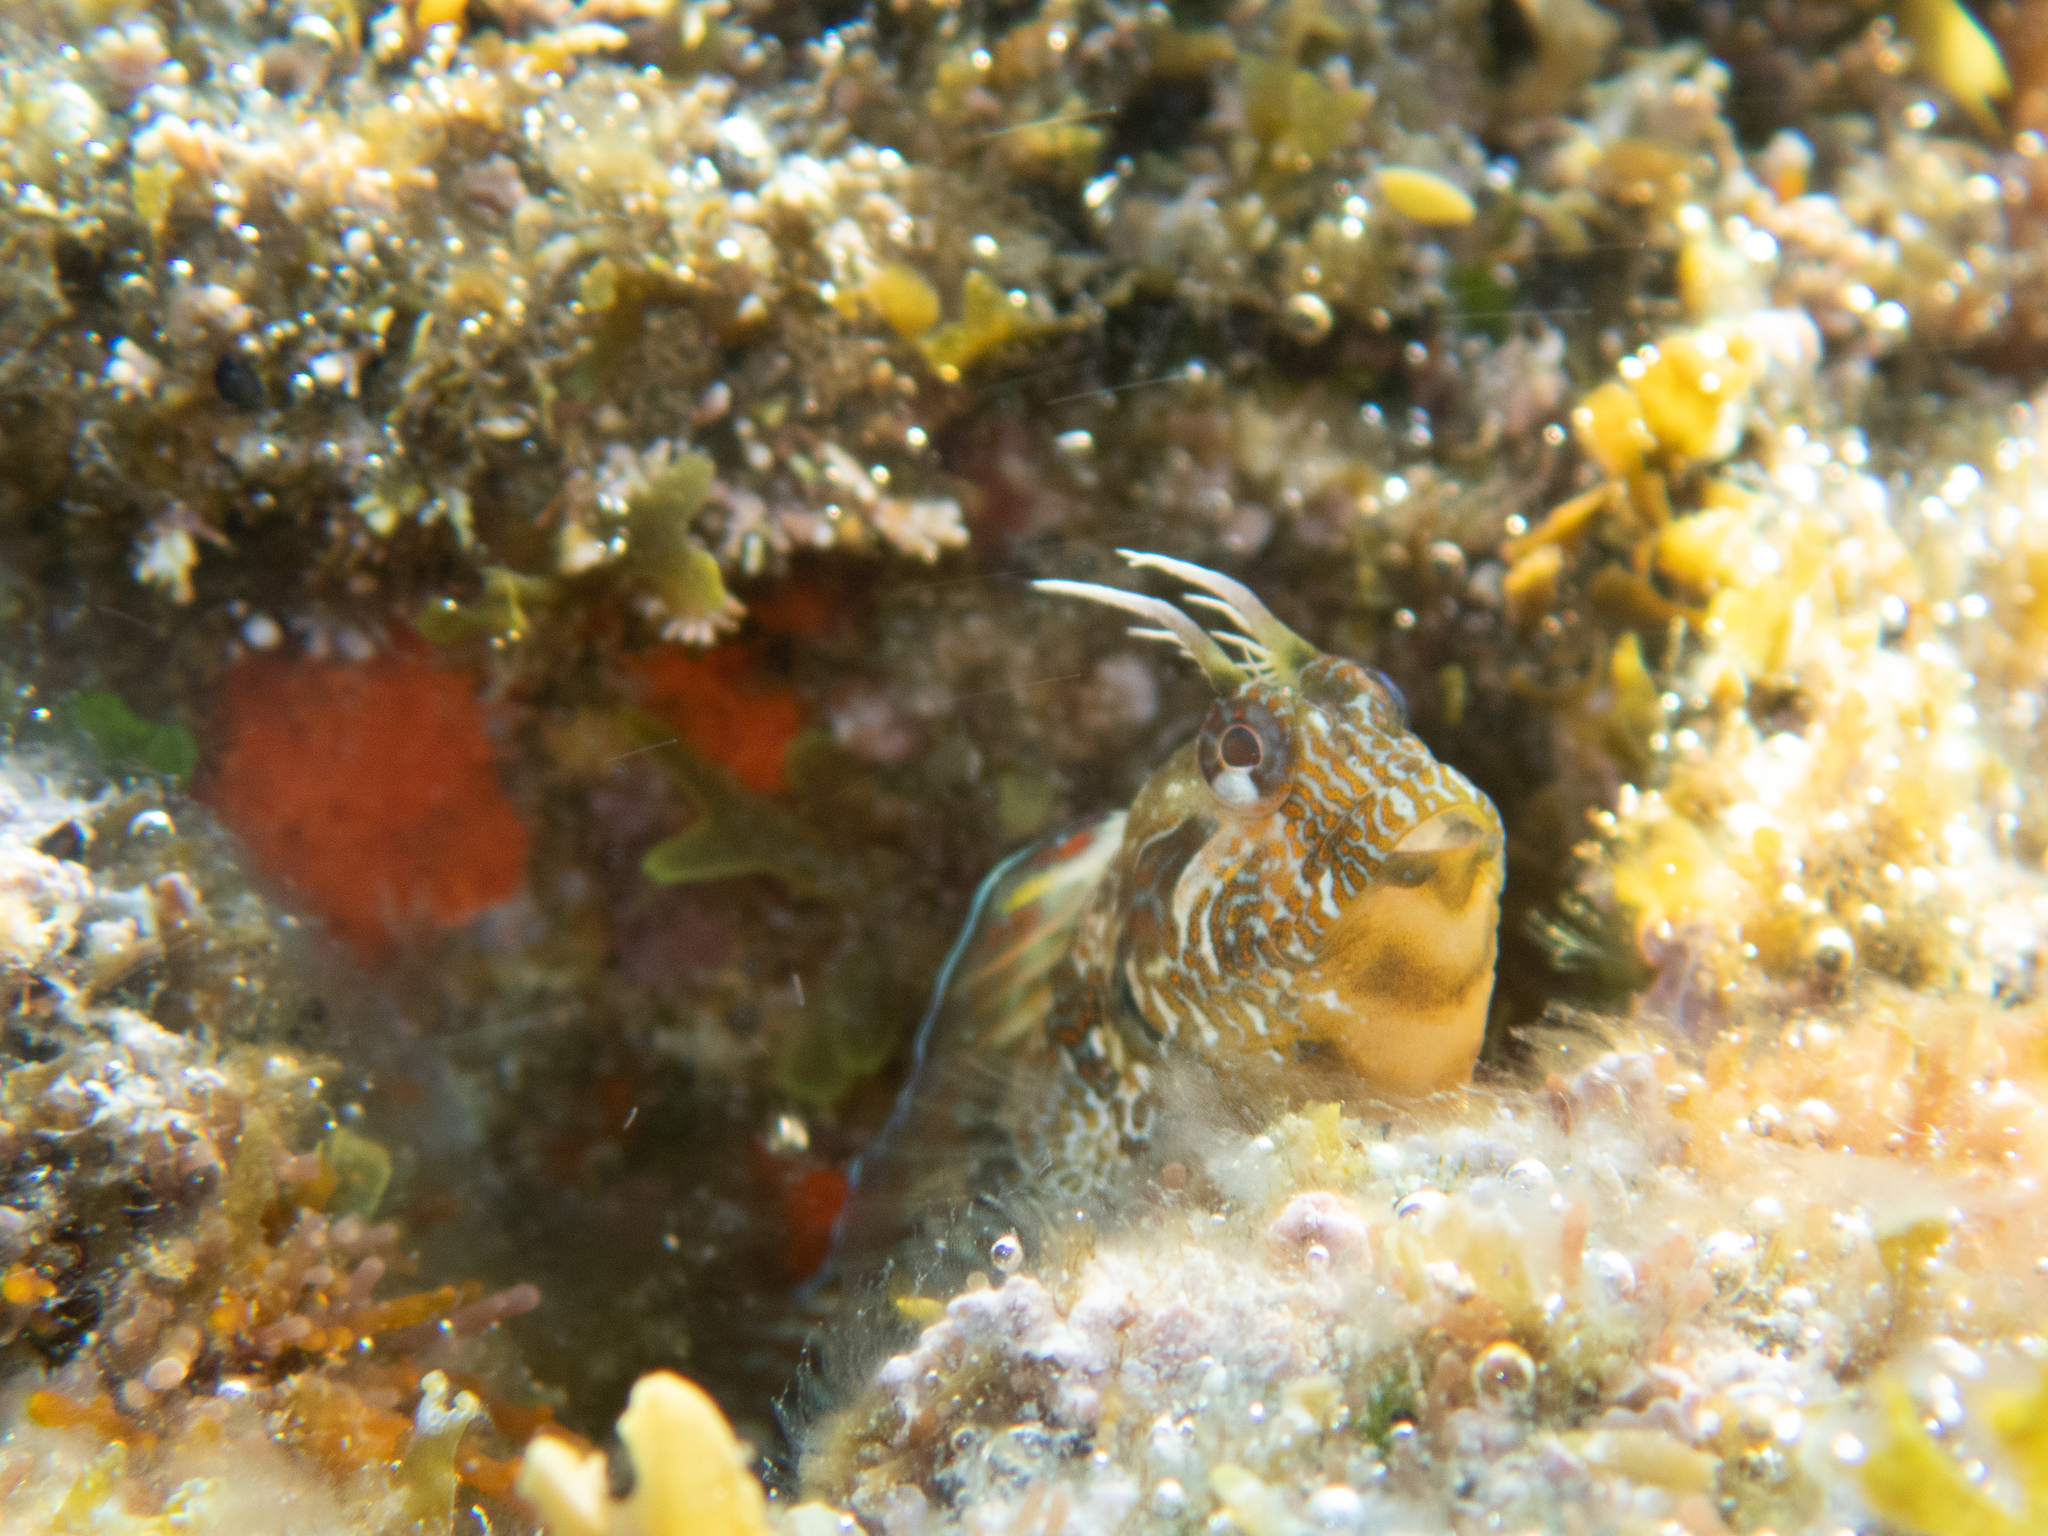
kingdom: Animalia
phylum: Chordata
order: Perciformes
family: Blenniidae
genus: Parablennius
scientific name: Parablennius incognitus
